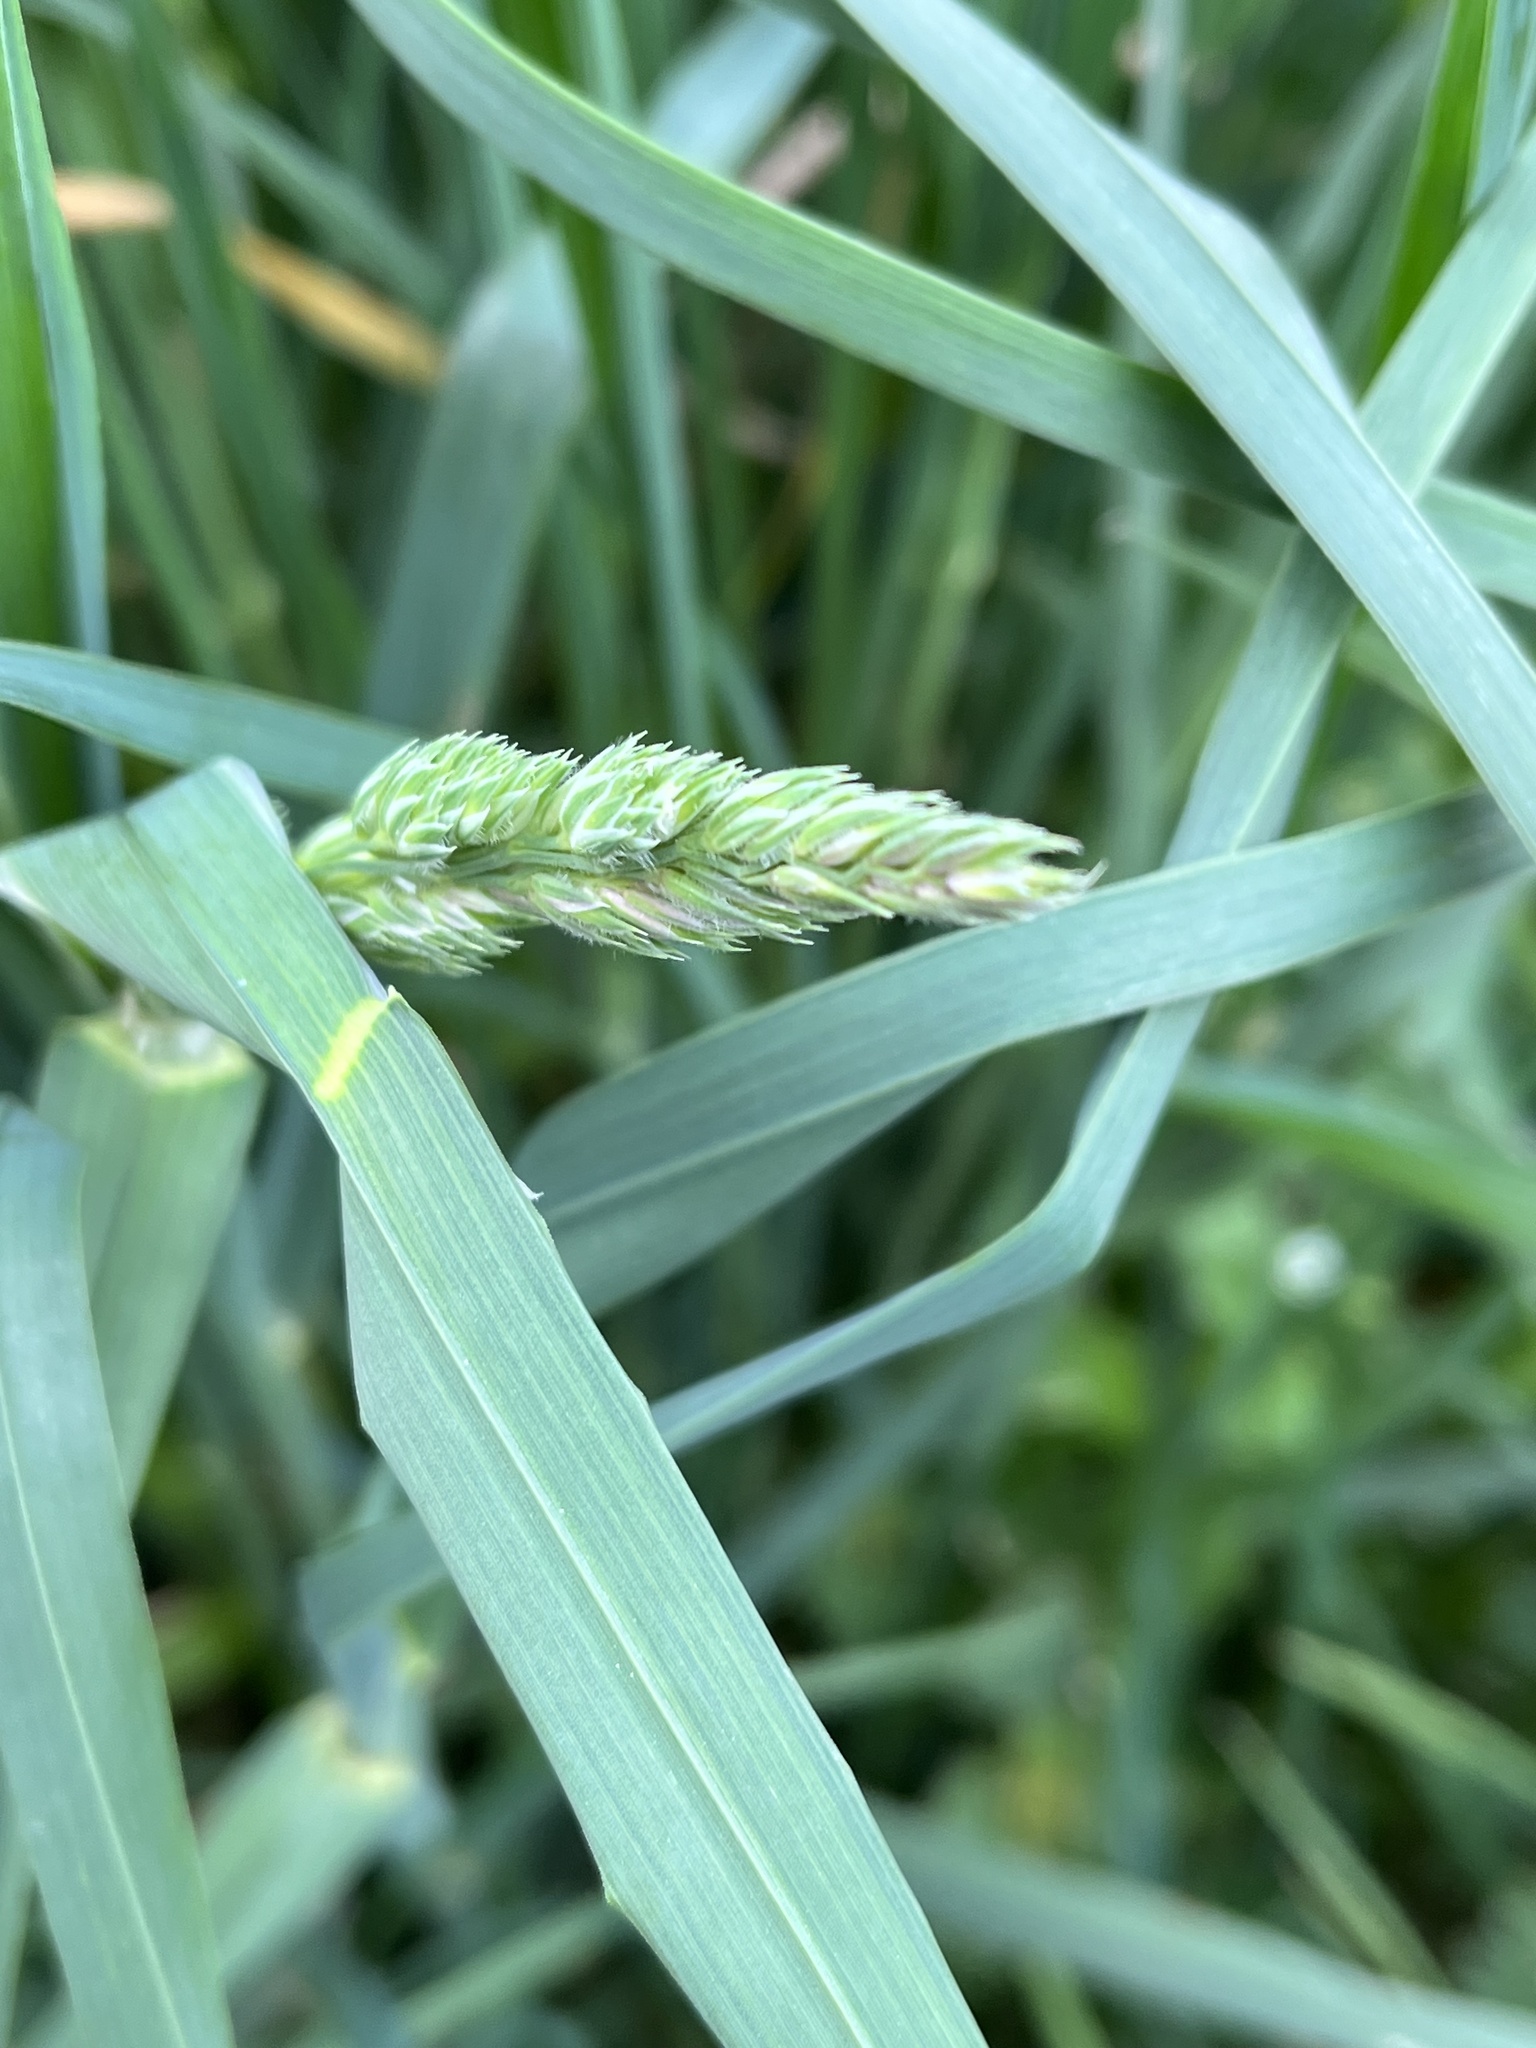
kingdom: Plantae
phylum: Tracheophyta
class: Liliopsida
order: Poales
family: Poaceae
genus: Dactylis
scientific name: Dactylis glomerata
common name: Orchardgrass
